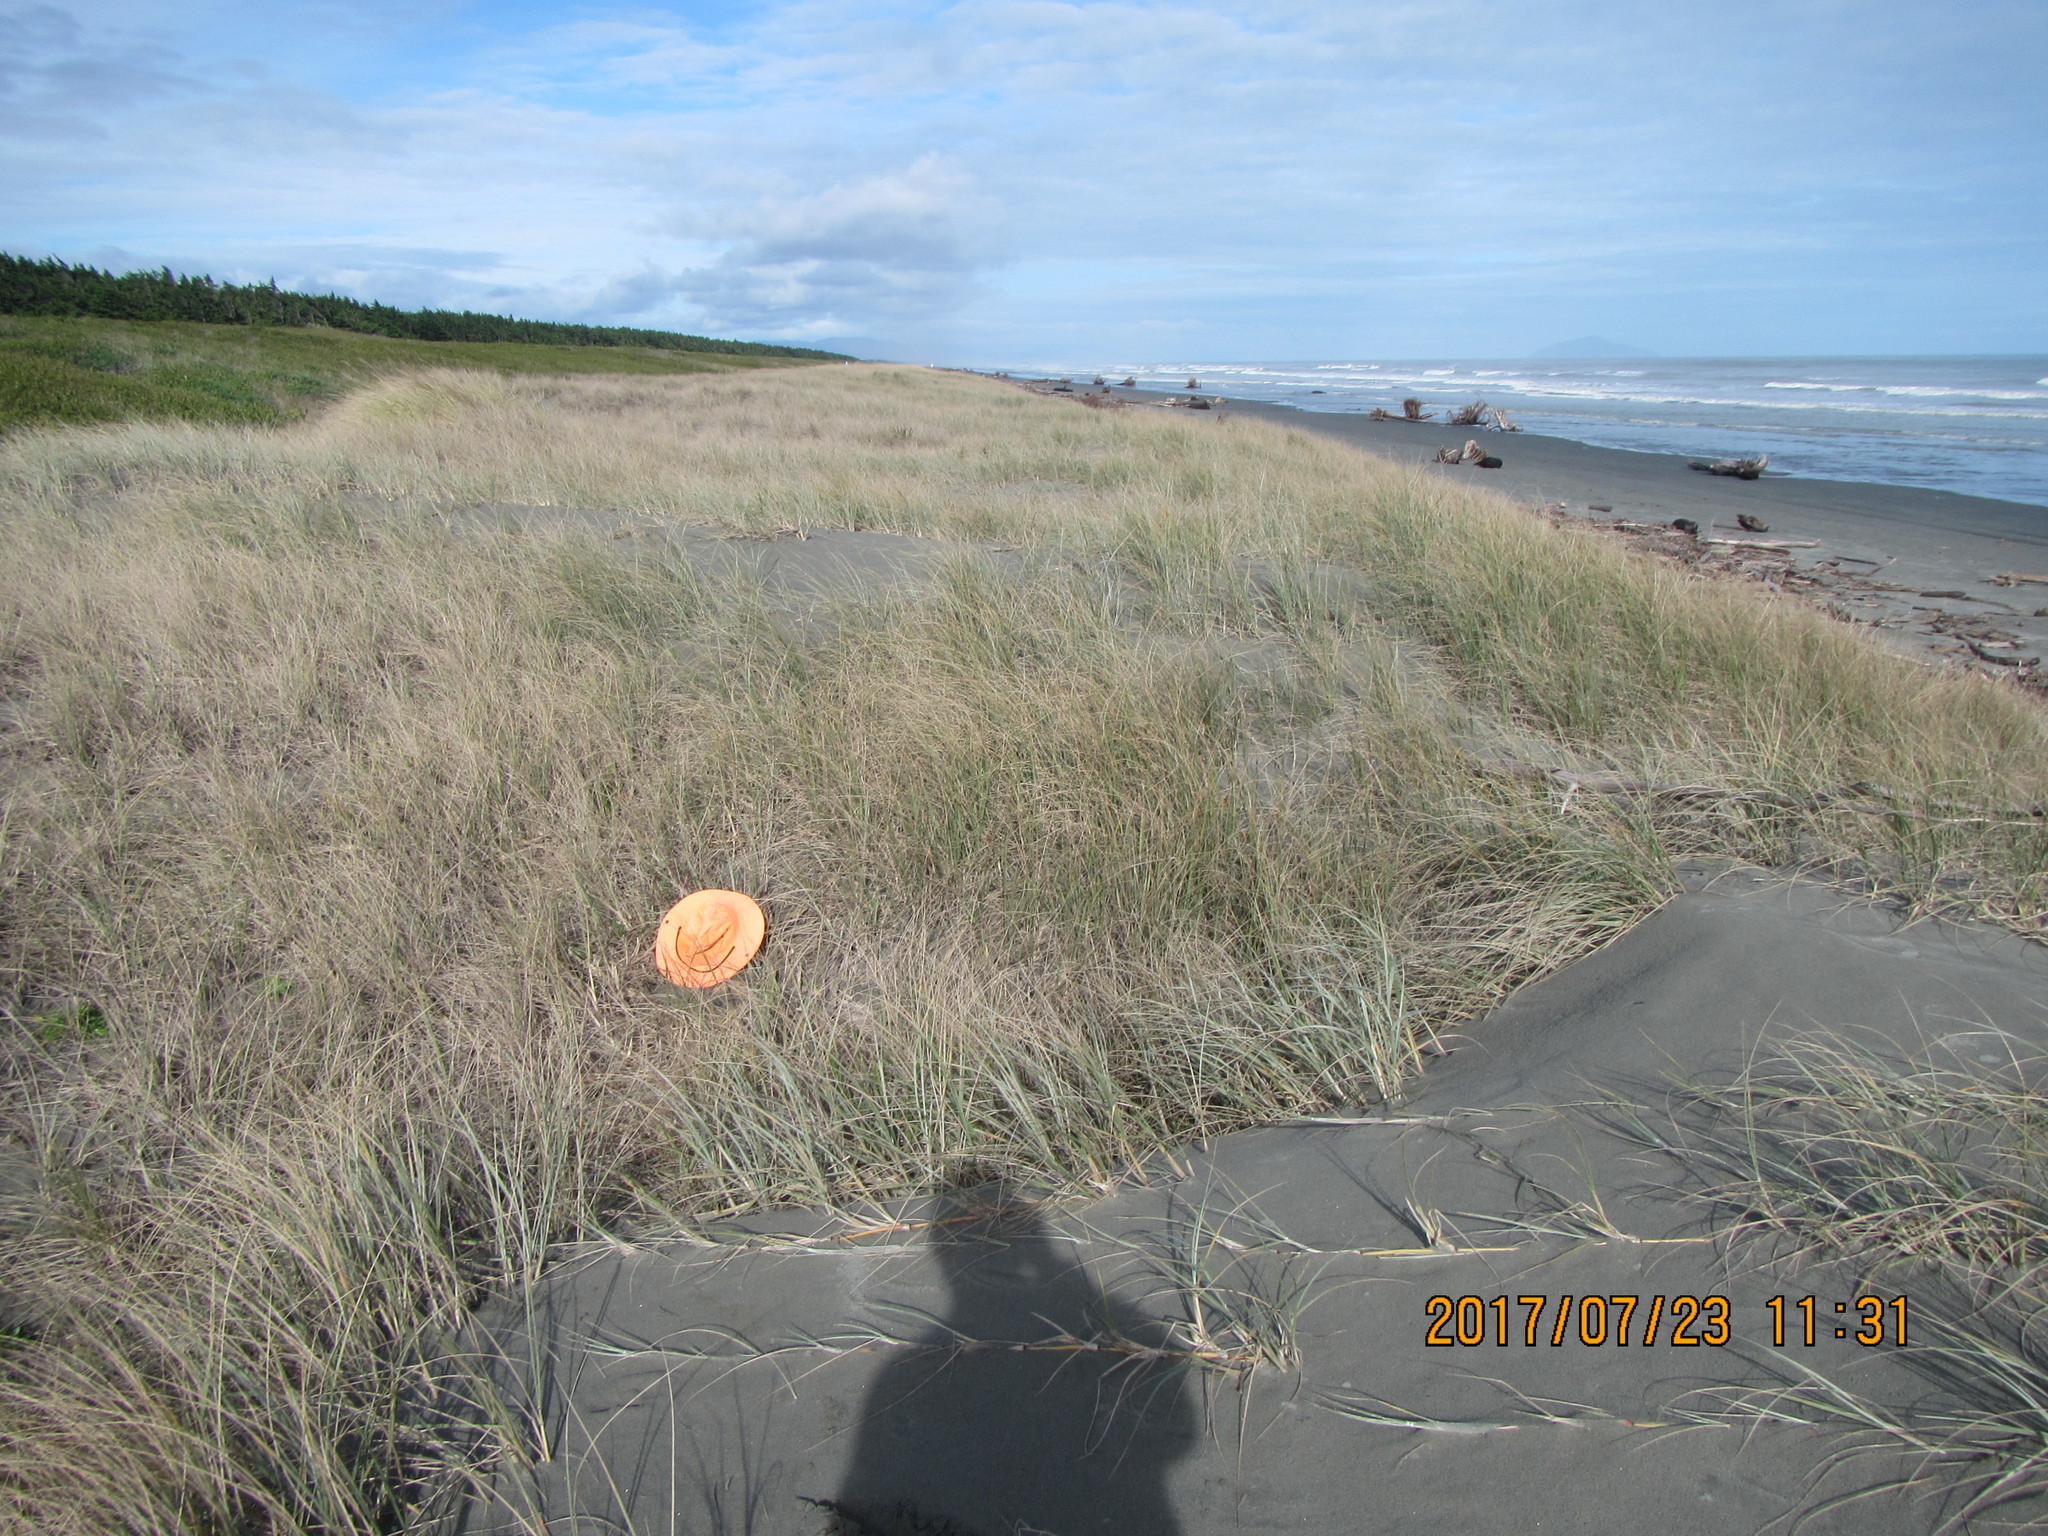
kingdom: Animalia
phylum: Chordata
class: Squamata
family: Scincidae
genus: Oligosoma
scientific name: Oligosoma polychroma
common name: Common new zealand skink
